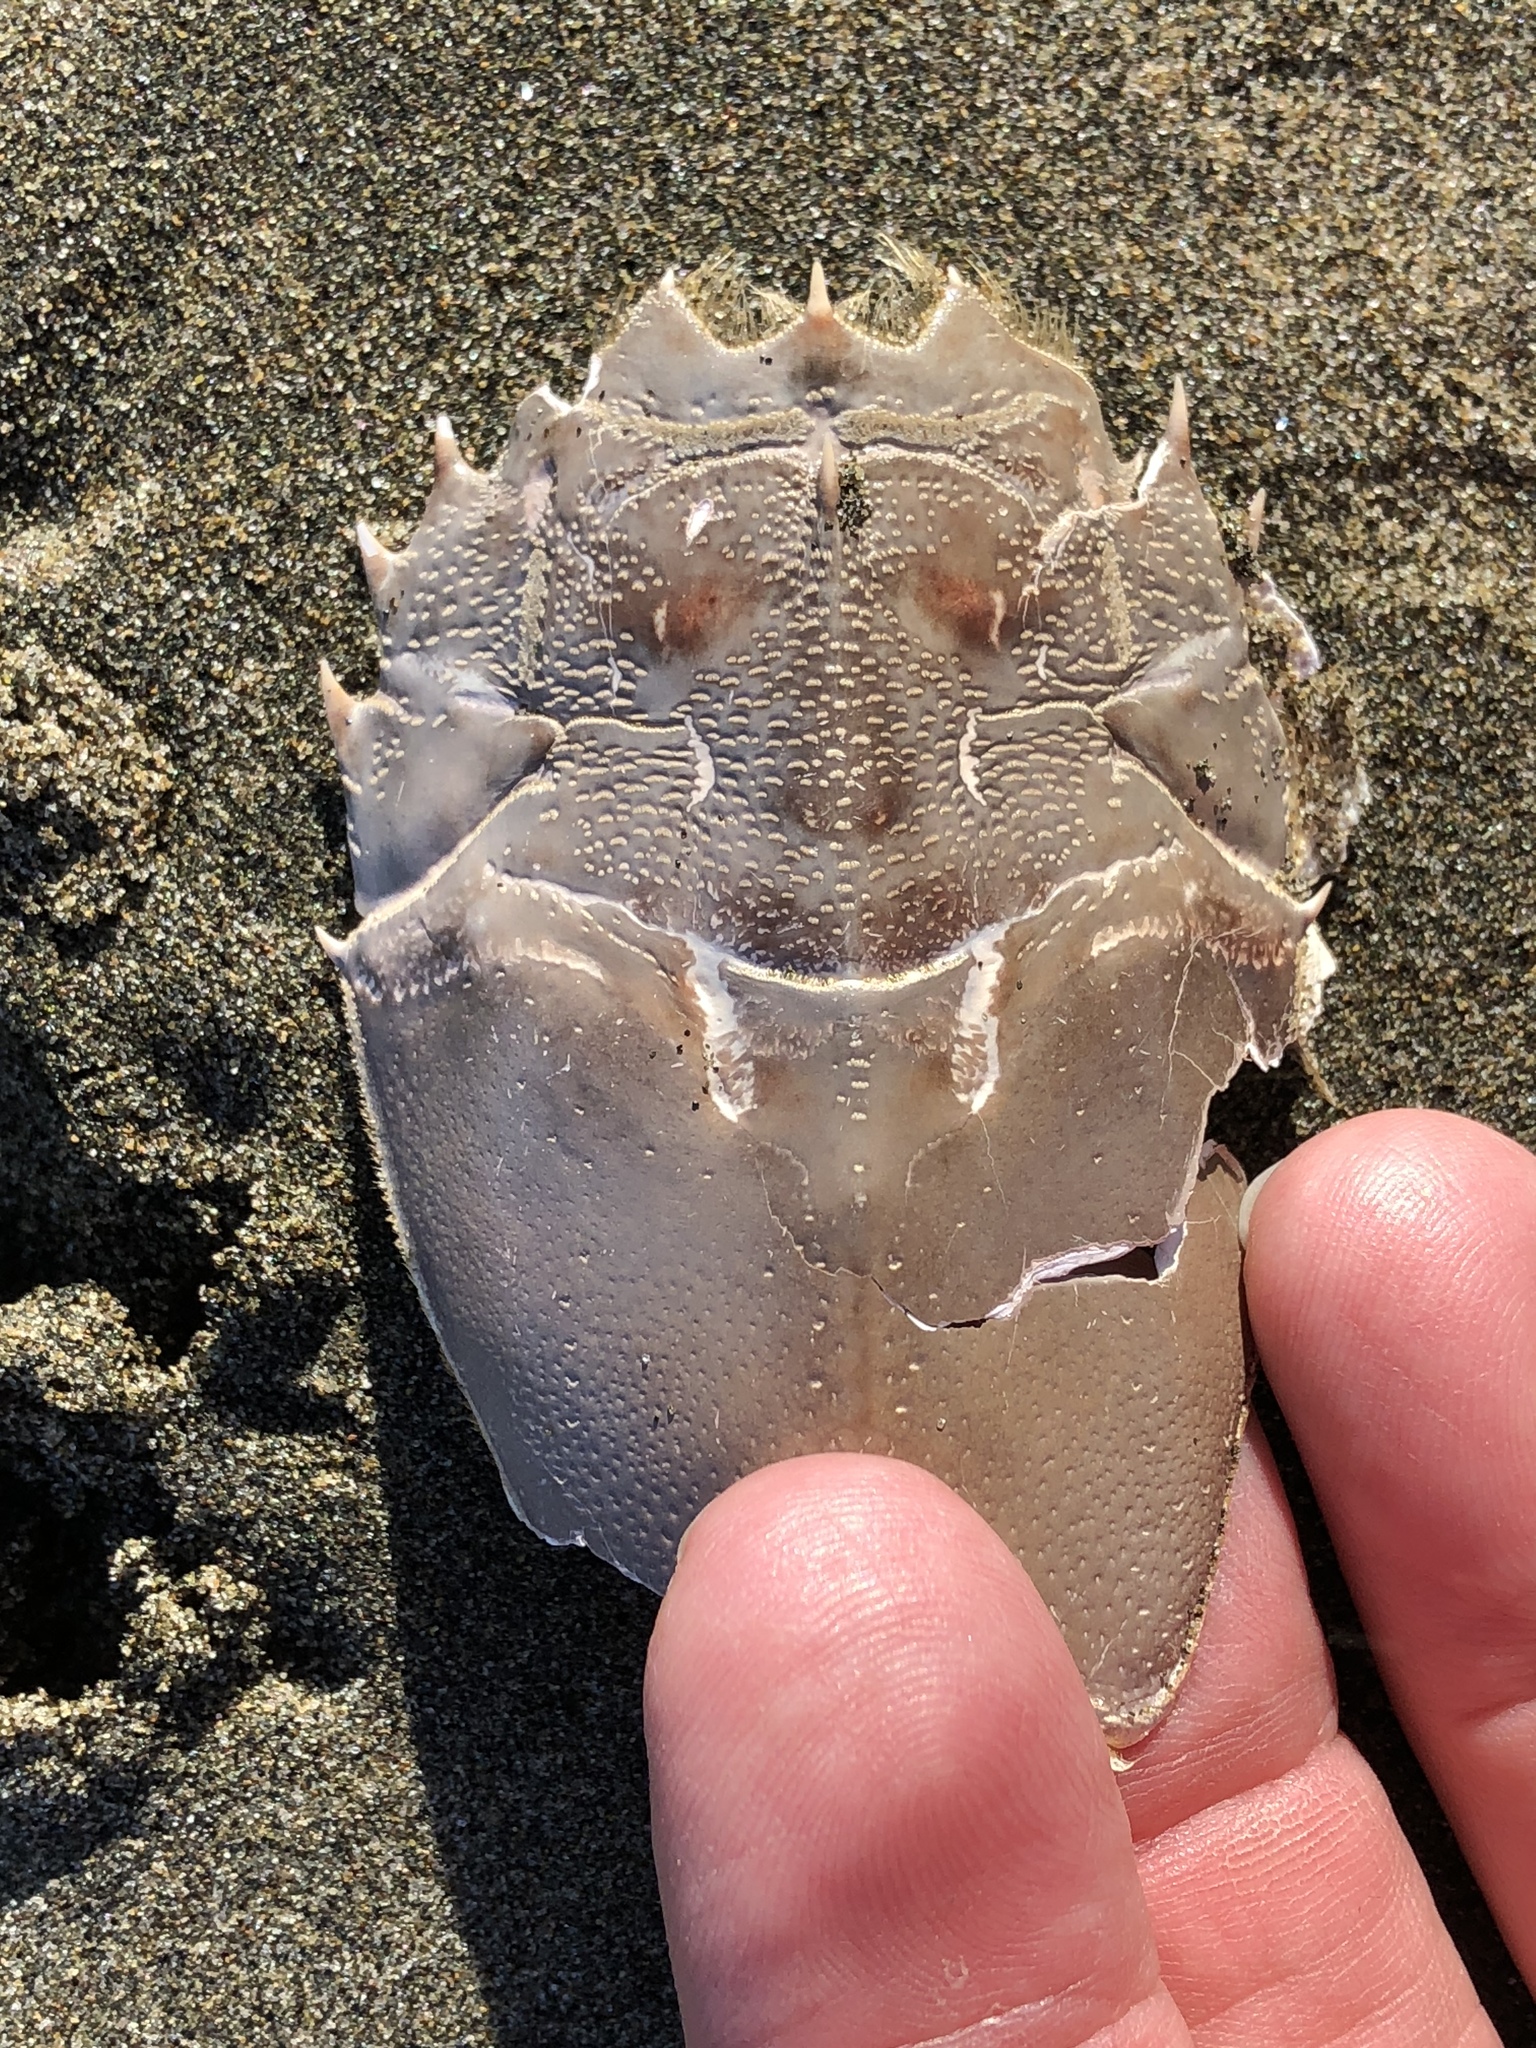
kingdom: Animalia
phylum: Arthropoda
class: Malacostraca
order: Decapoda
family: Blepharipodidae
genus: Blepharipoda
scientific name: Blepharipoda occidentalis
